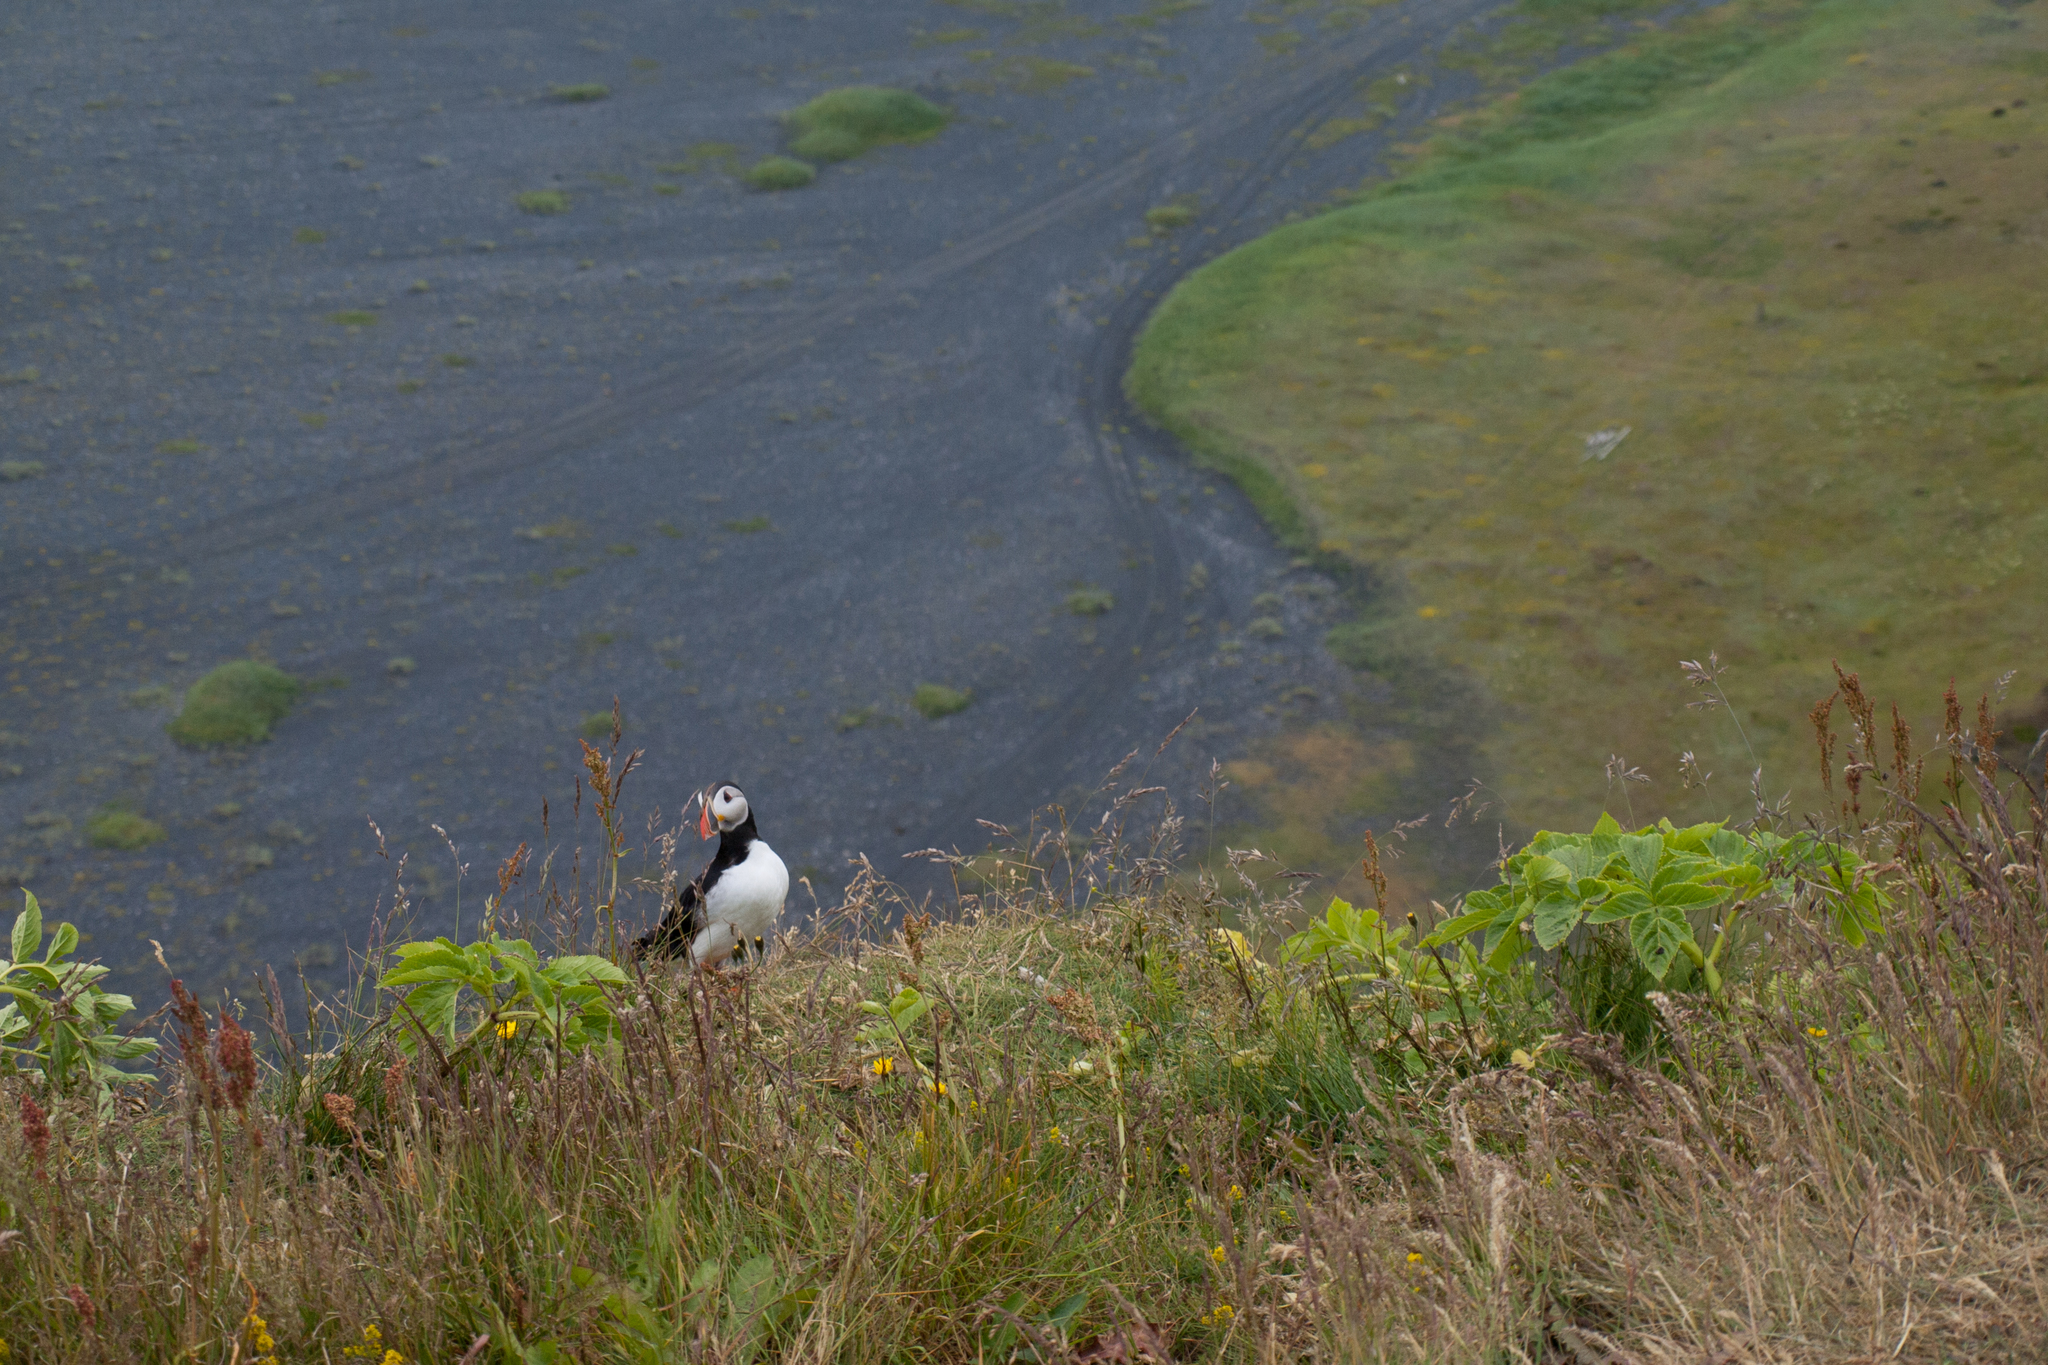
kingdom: Animalia
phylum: Chordata
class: Aves
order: Charadriiformes
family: Alcidae
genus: Fratercula
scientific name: Fratercula arctica
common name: Atlantic puffin
